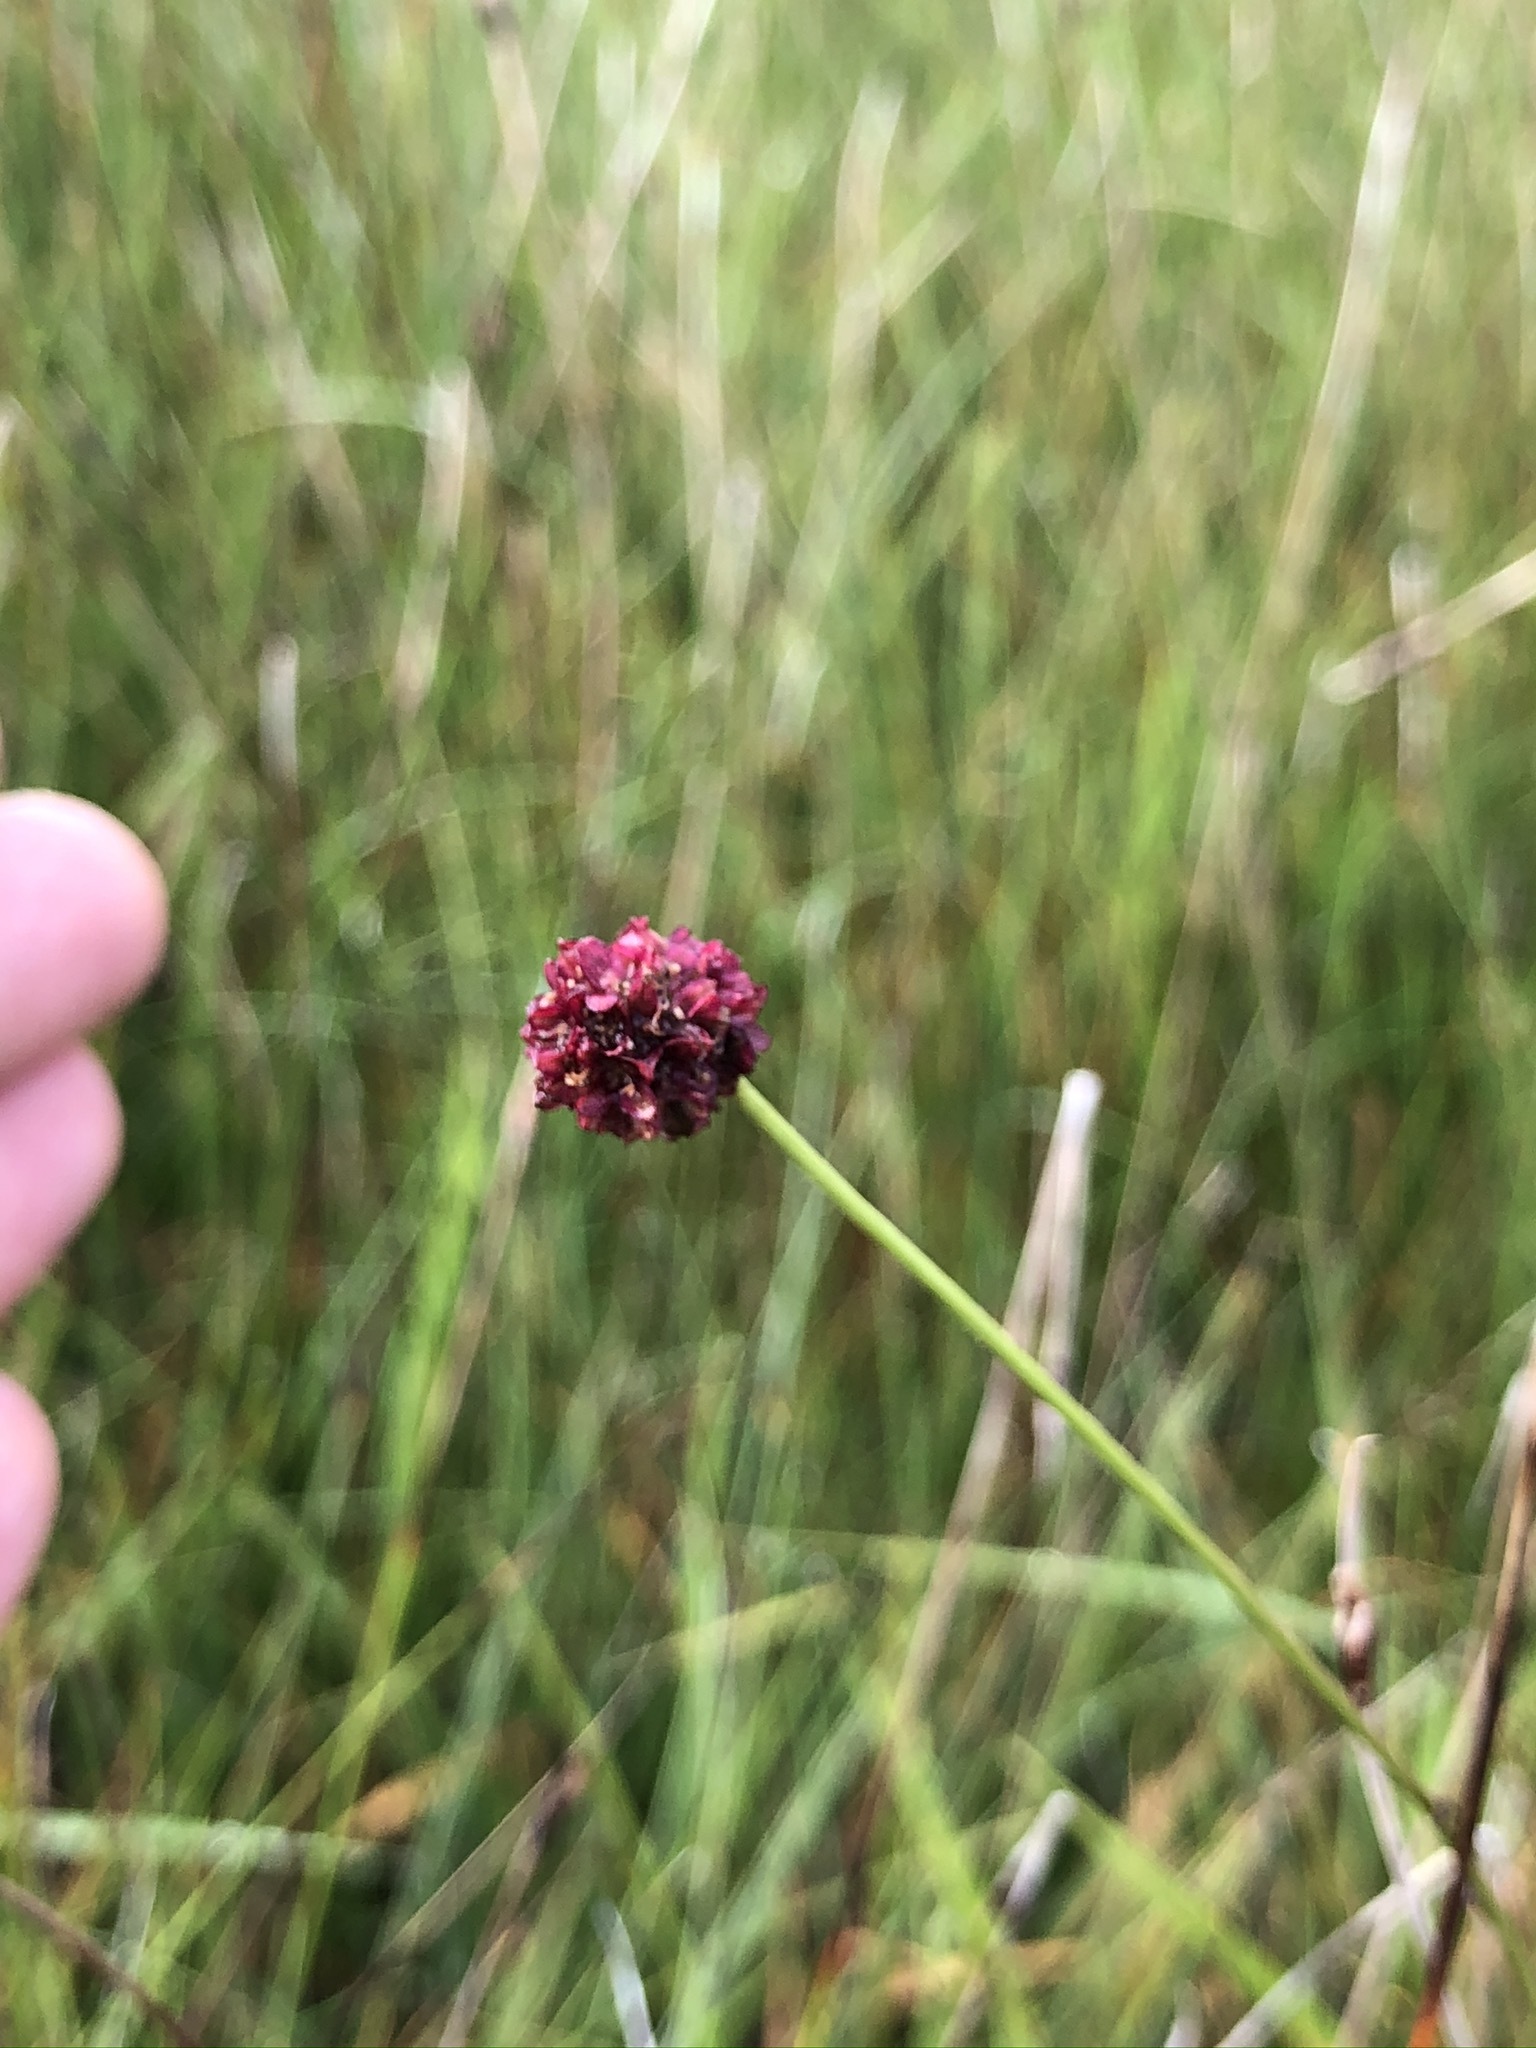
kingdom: Plantae
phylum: Tracheophyta
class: Magnoliopsida
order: Rosales
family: Rosaceae
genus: Sanguisorba
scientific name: Sanguisorba officinalis
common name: Great burnet
